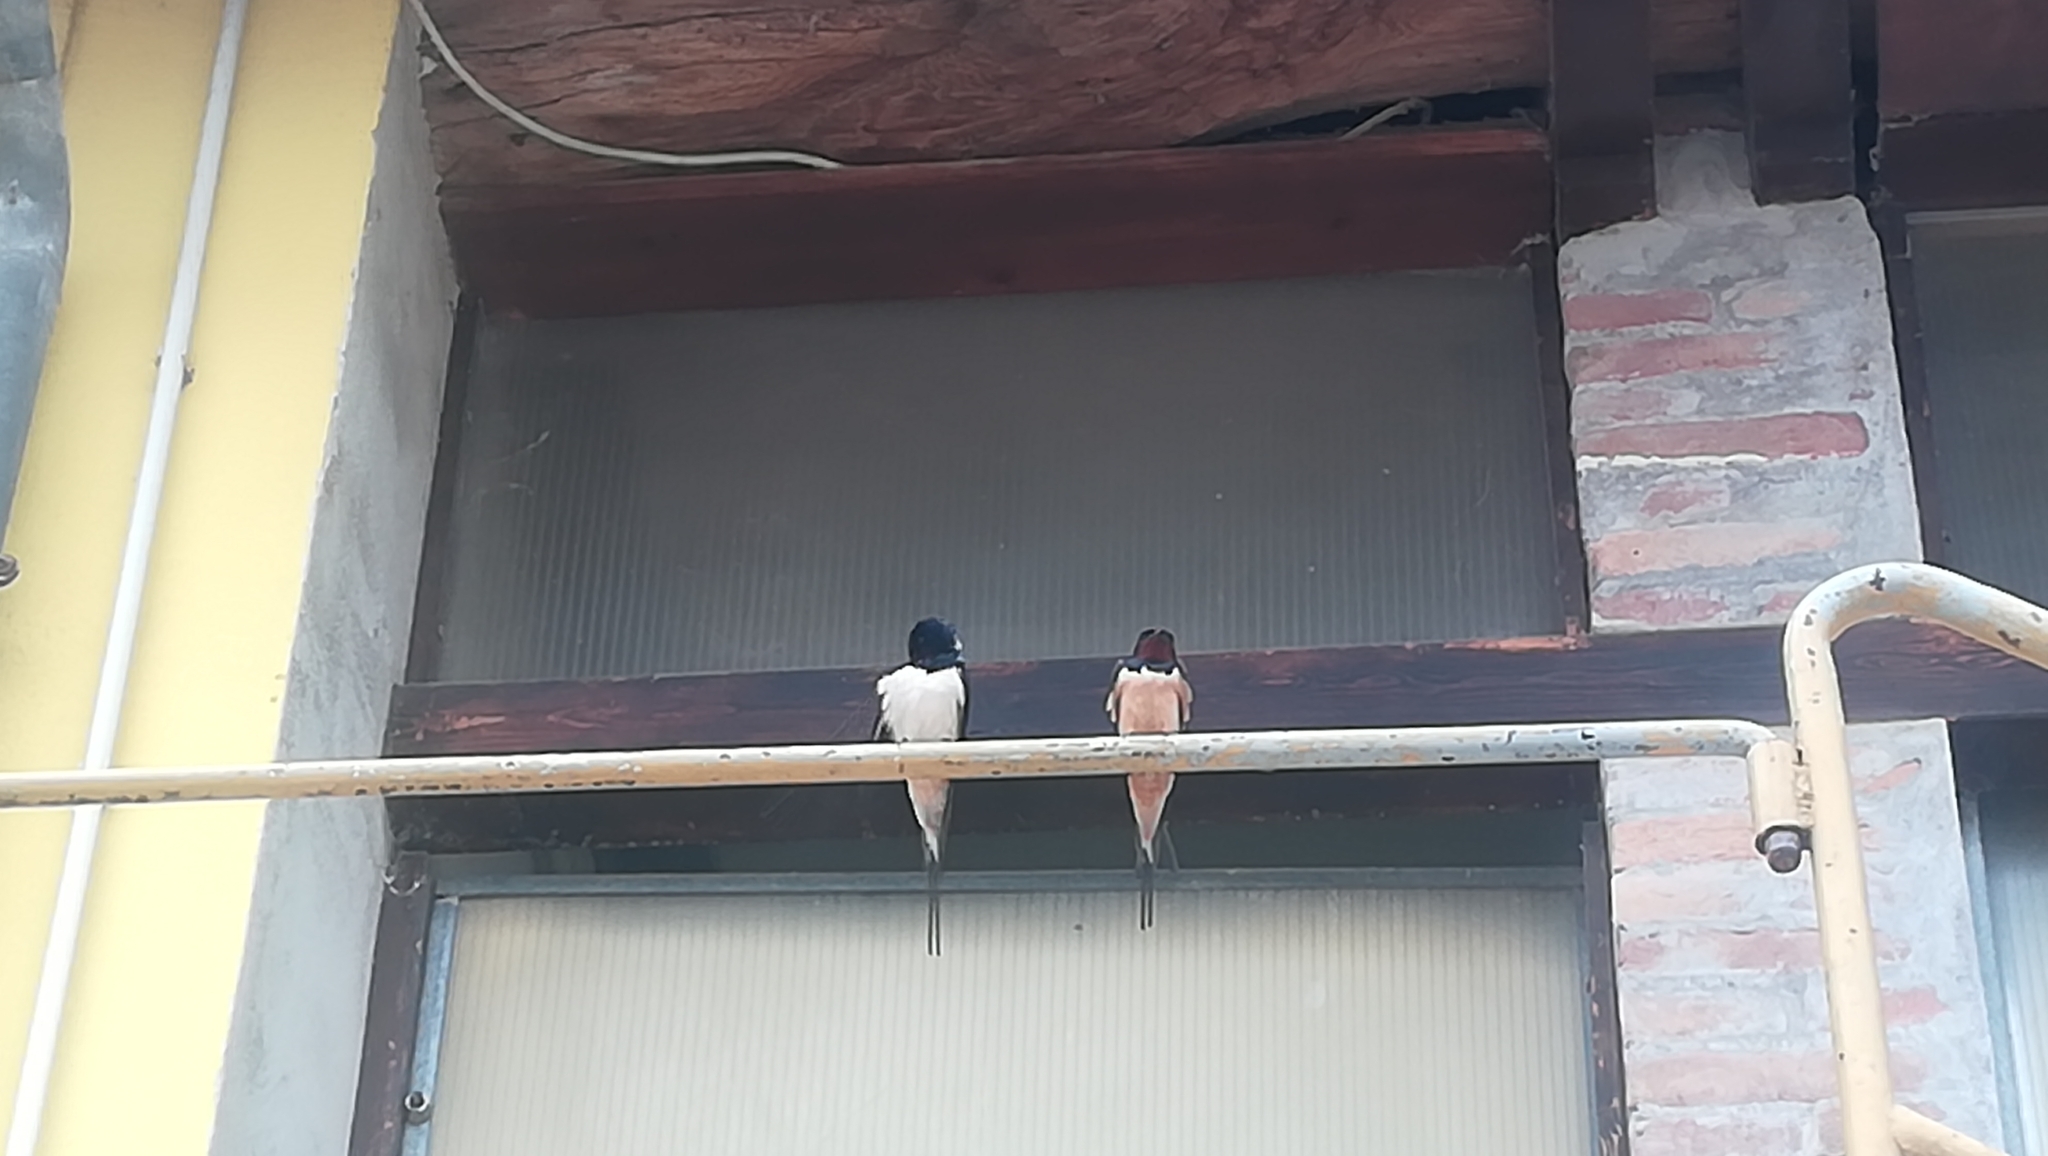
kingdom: Animalia
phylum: Chordata
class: Aves
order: Passeriformes
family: Hirundinidae
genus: Hirundo
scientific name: Hirundo rustica
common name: Barn swallow
